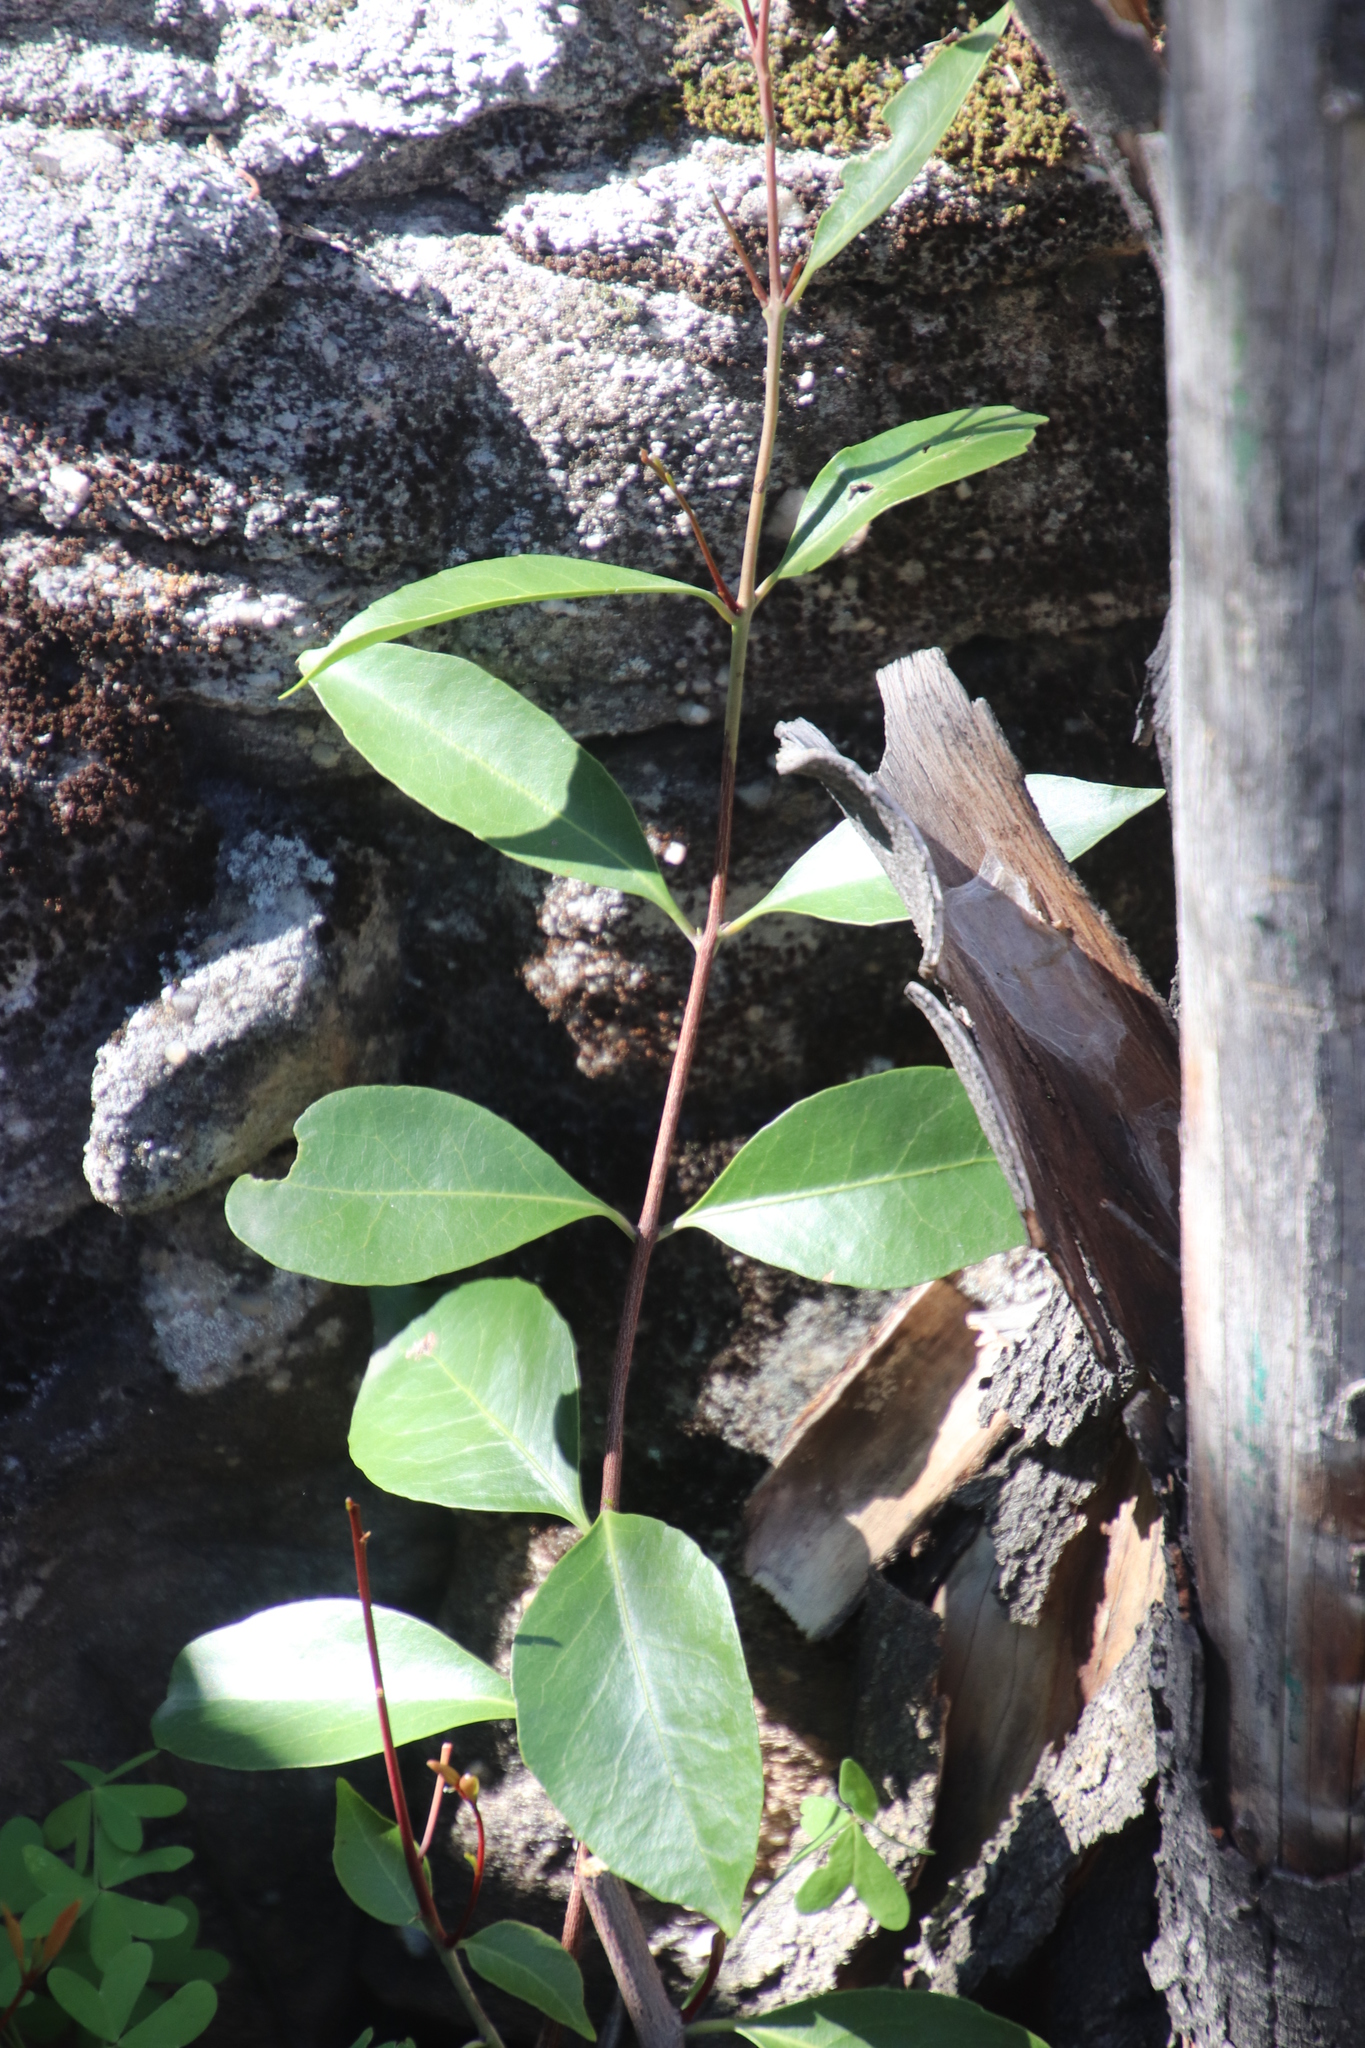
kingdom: Plantae
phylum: Tracheophyta
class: Magnoliopsida
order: Celastrales
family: Celastraceae
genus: Cassine
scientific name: Cassine peragua
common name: Cape saffron
